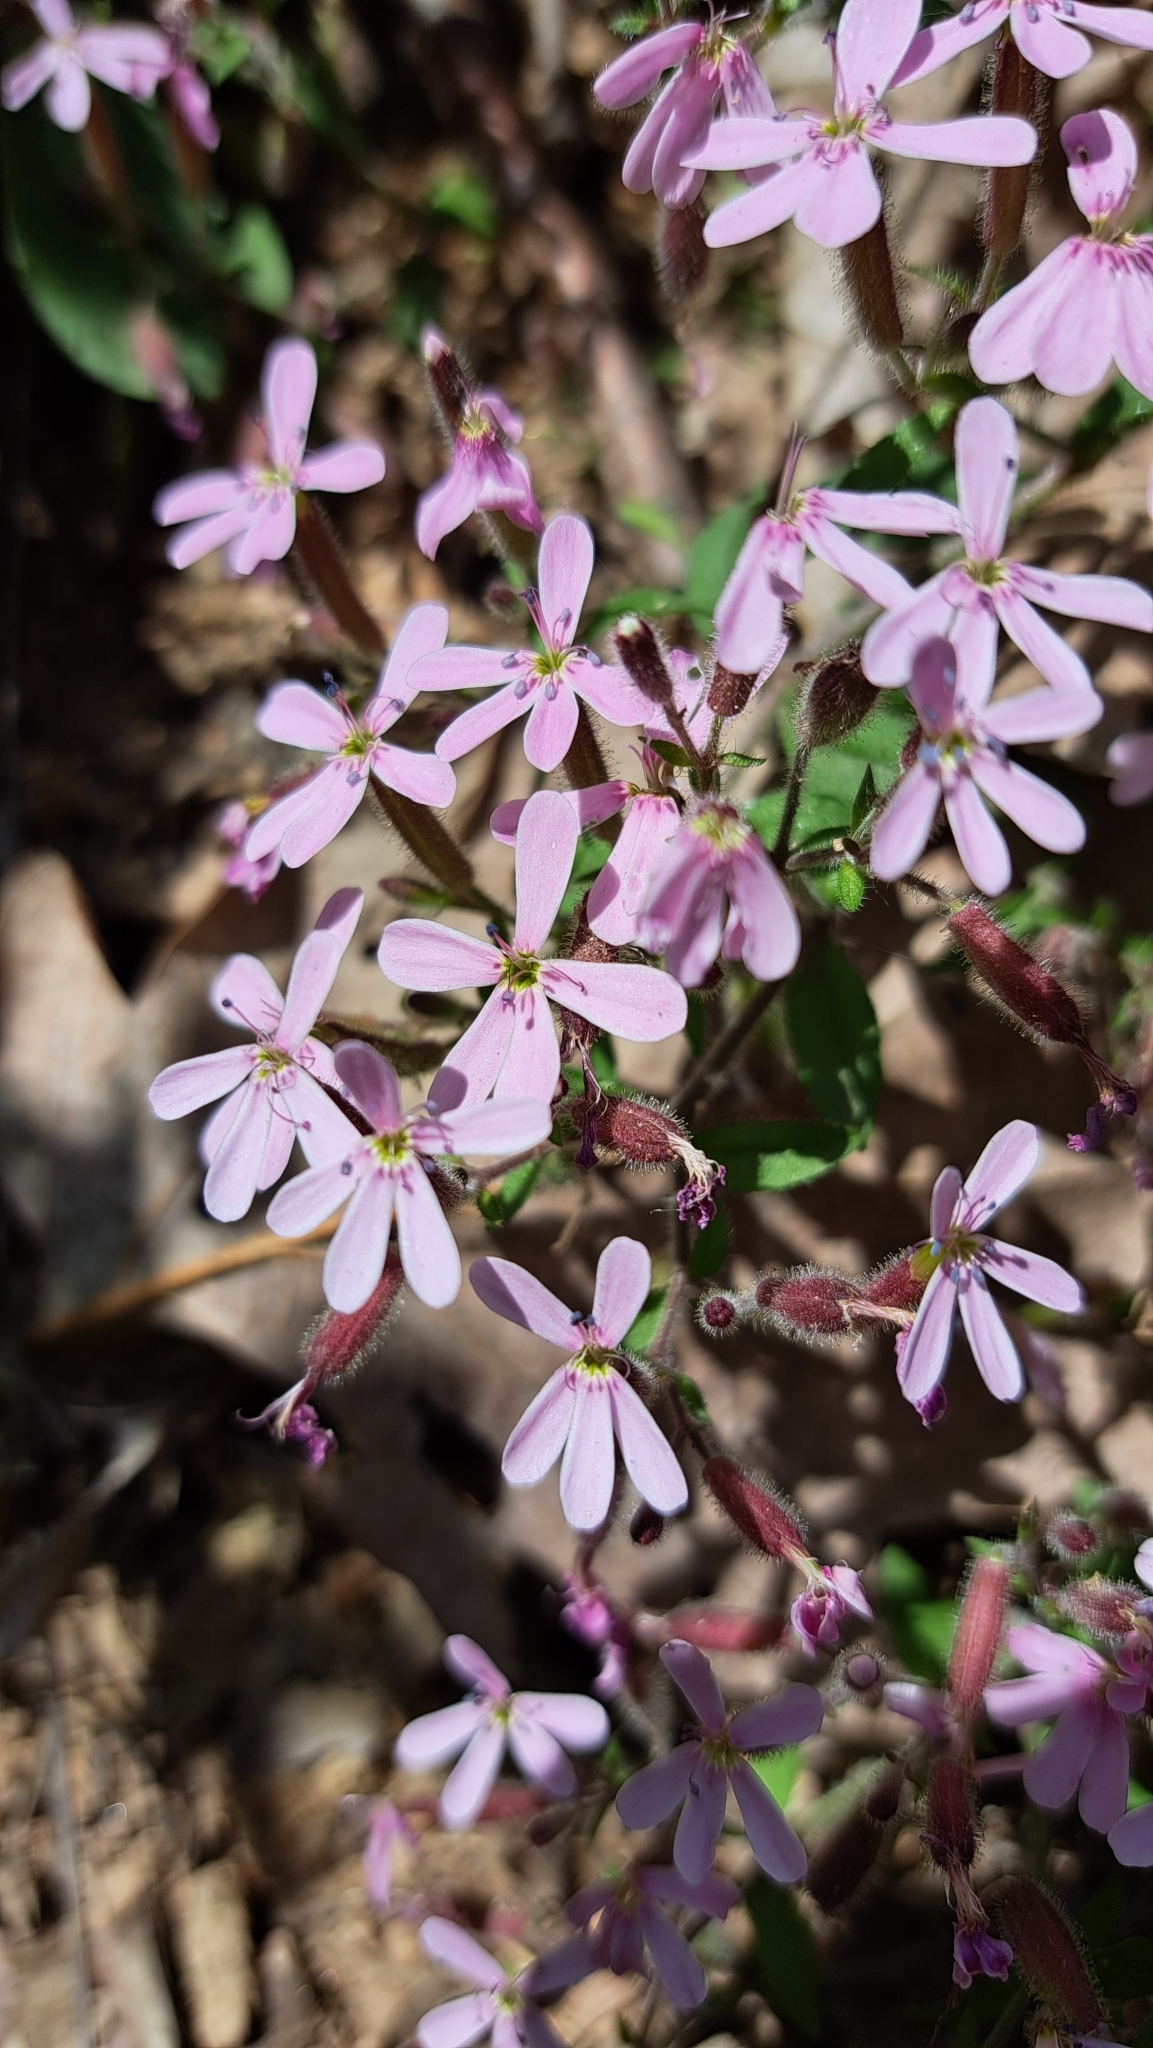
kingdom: Plantae
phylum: Tracheophyta
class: Magnoliopsida
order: Caryophyllales
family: Caryophyllaceae
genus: Saponaria
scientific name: Saponaria ocymoides
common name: Rock soapwort
